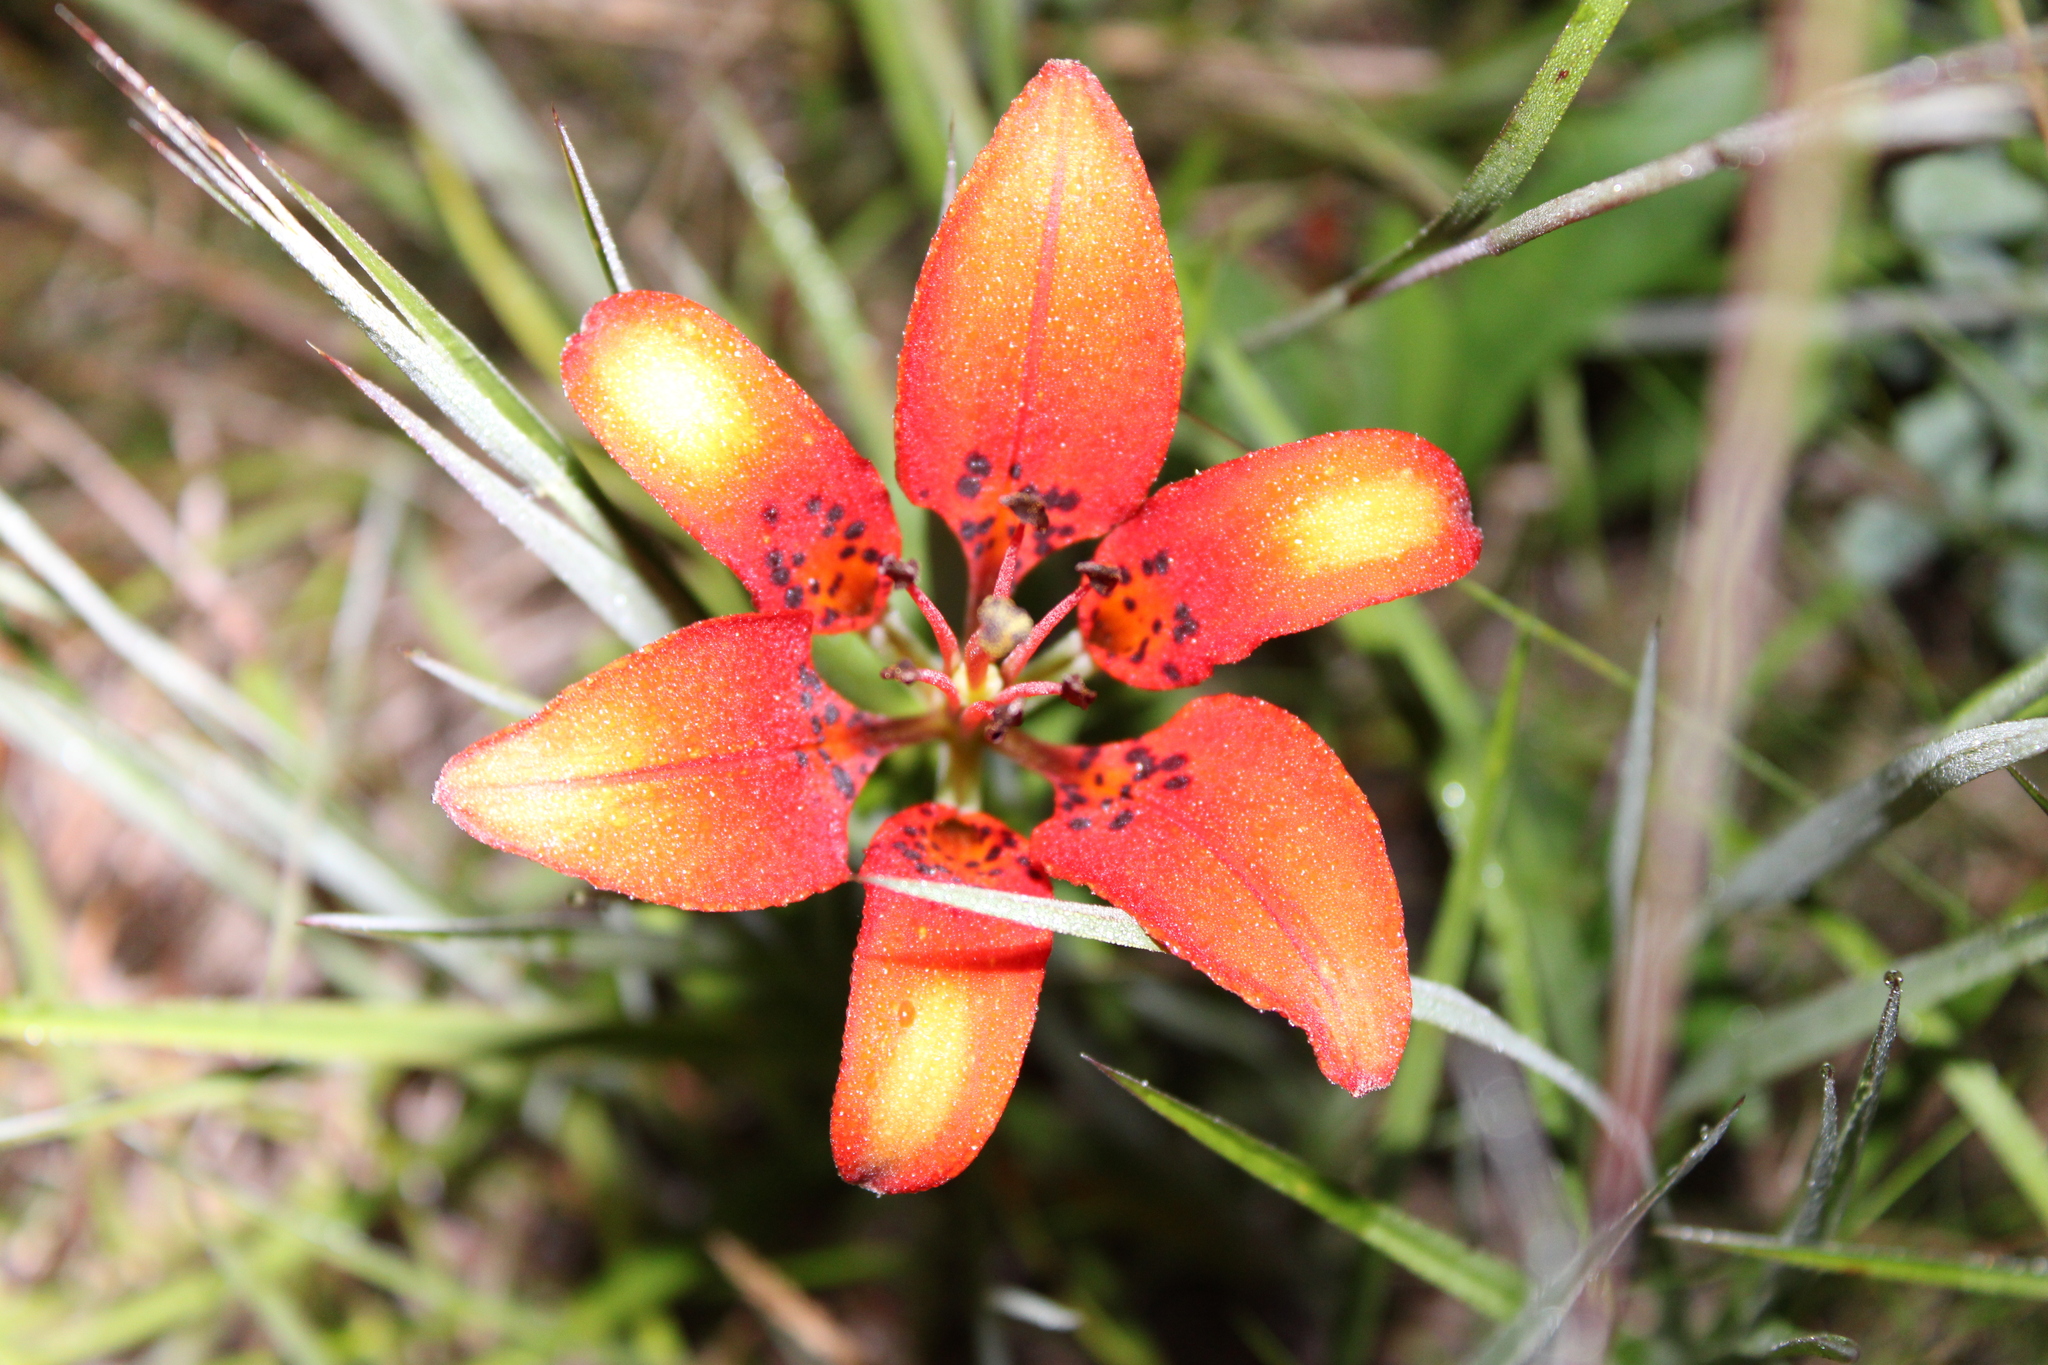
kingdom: Plantae
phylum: Tracheophyta
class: Liliopsida
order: Liliales
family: Liliaceae
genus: Lilium
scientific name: Lilium philadelphicum
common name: Red lily
